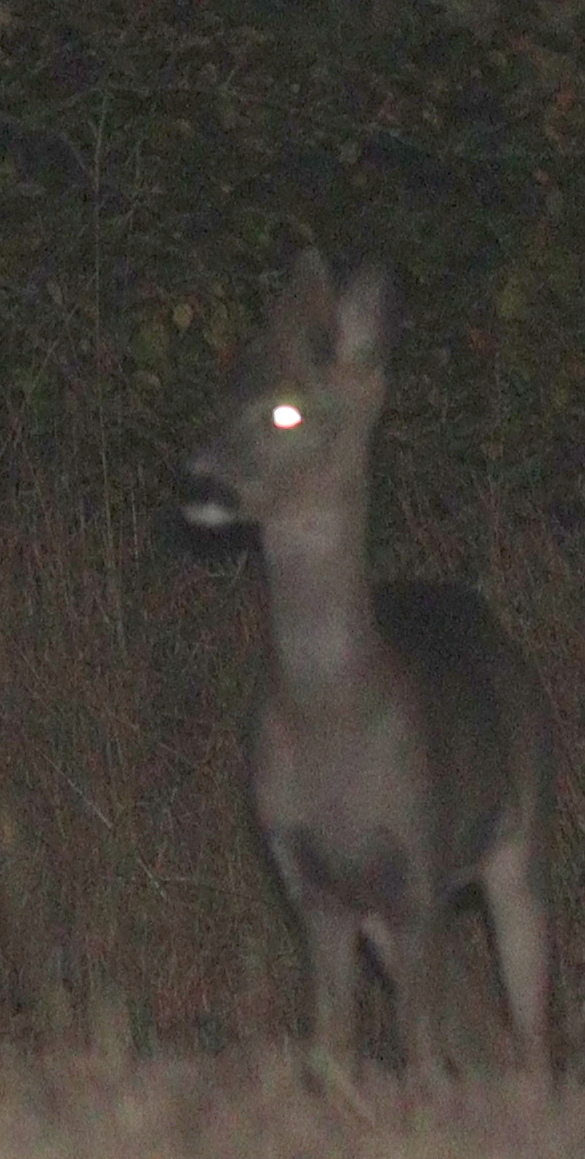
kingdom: Animalia
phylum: Chordata
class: Mammalia
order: Artiodactyla
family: Cervidae
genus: Capreolus
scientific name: Capreolus capreolus
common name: Western roe deer
